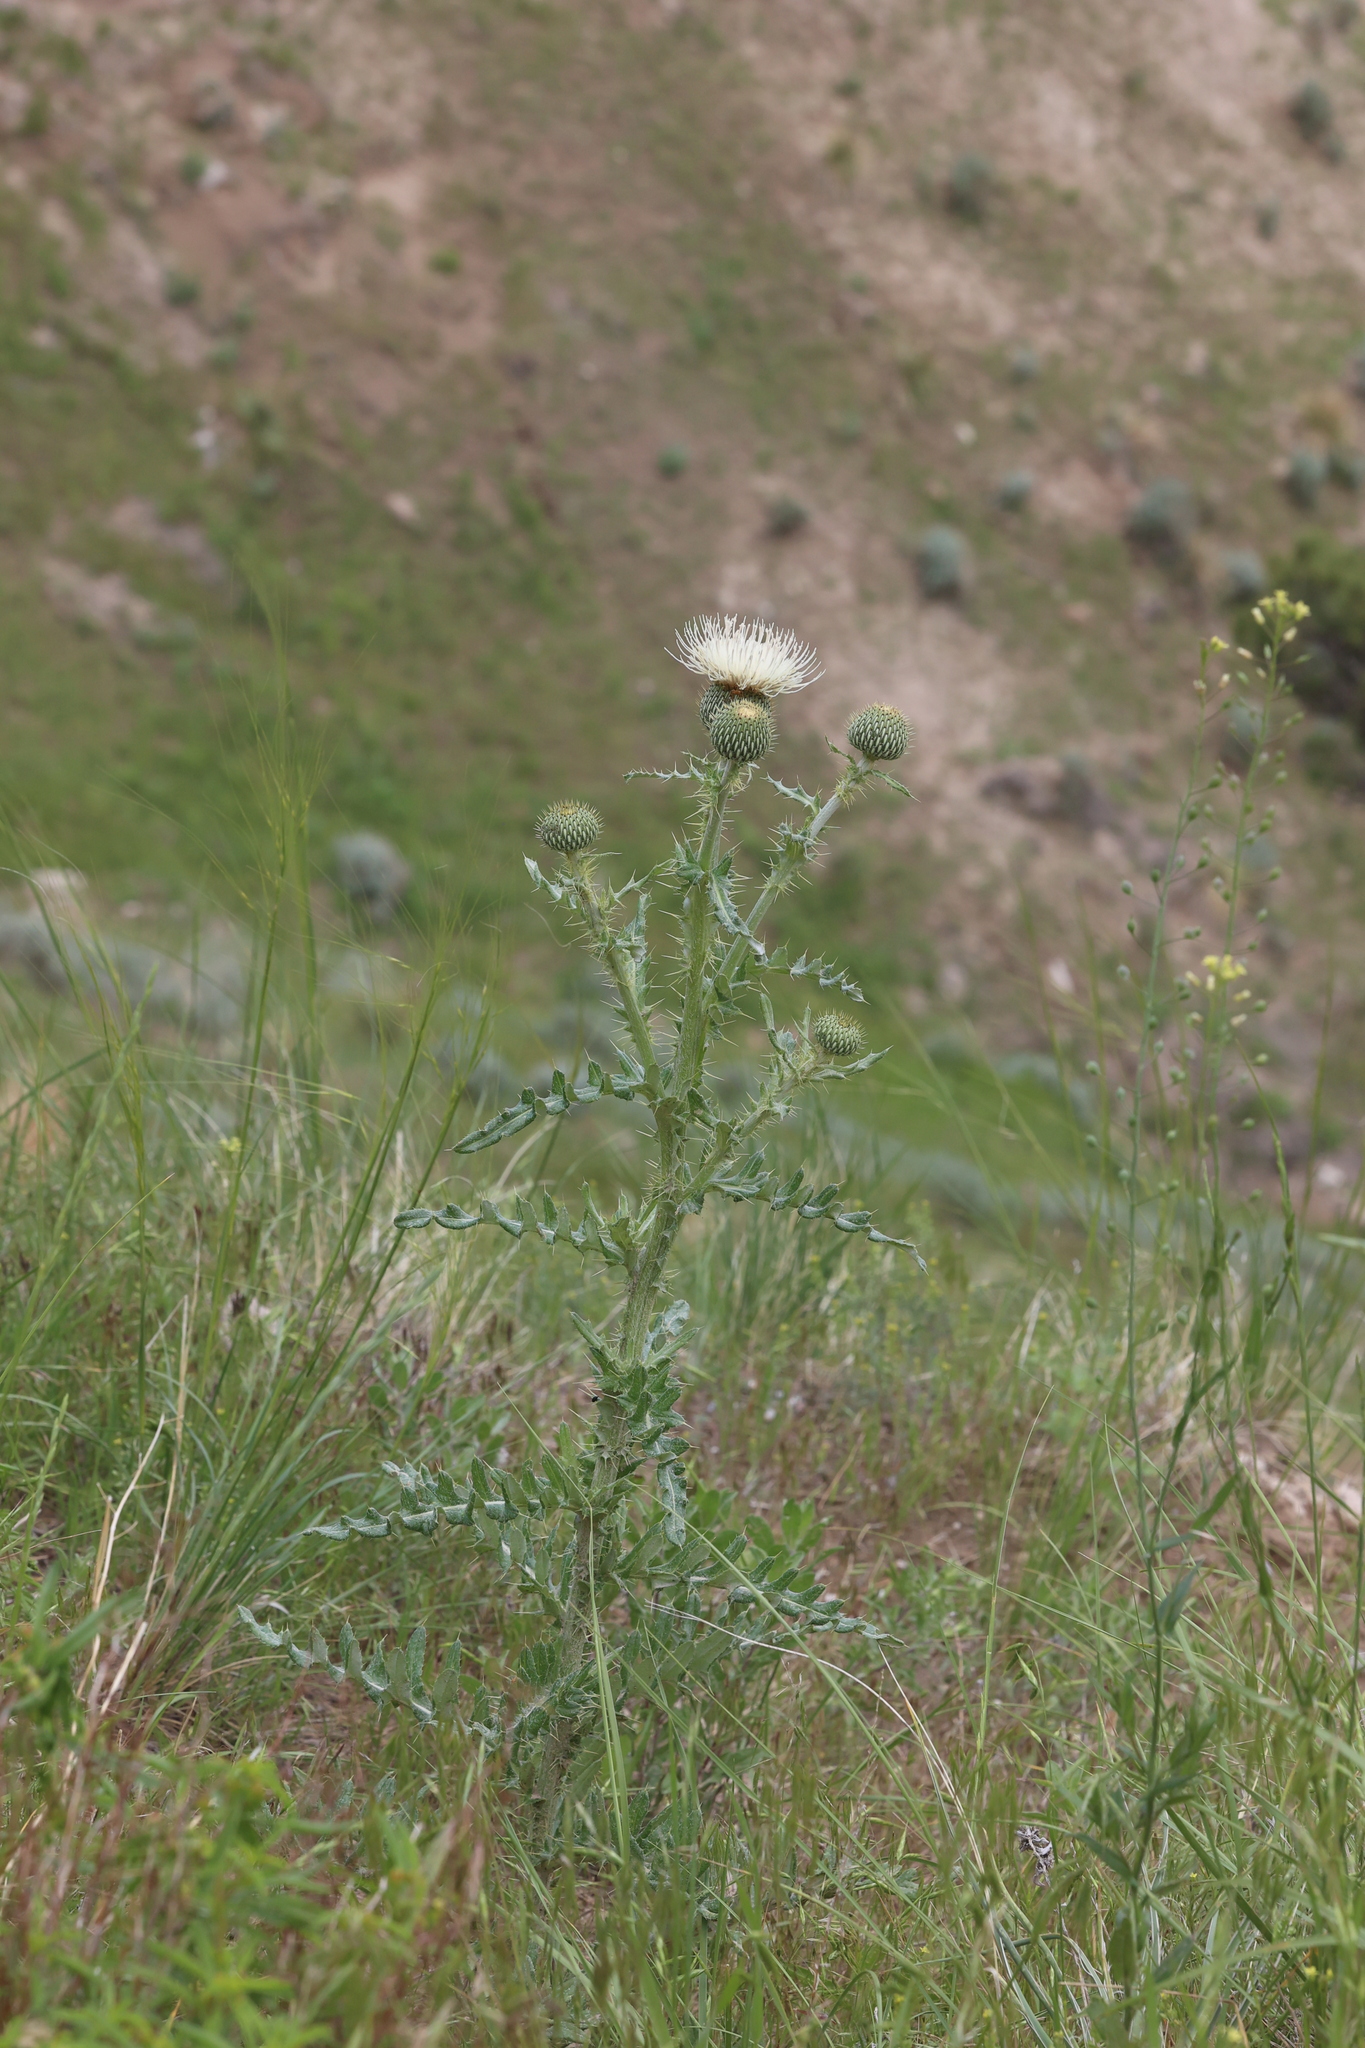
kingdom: Plantae
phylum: Tracheophyta
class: Magnoliopsida
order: Asterales
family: Asteraceae
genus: Cirsium
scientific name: Cirsium canescens
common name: Prairie thistle
